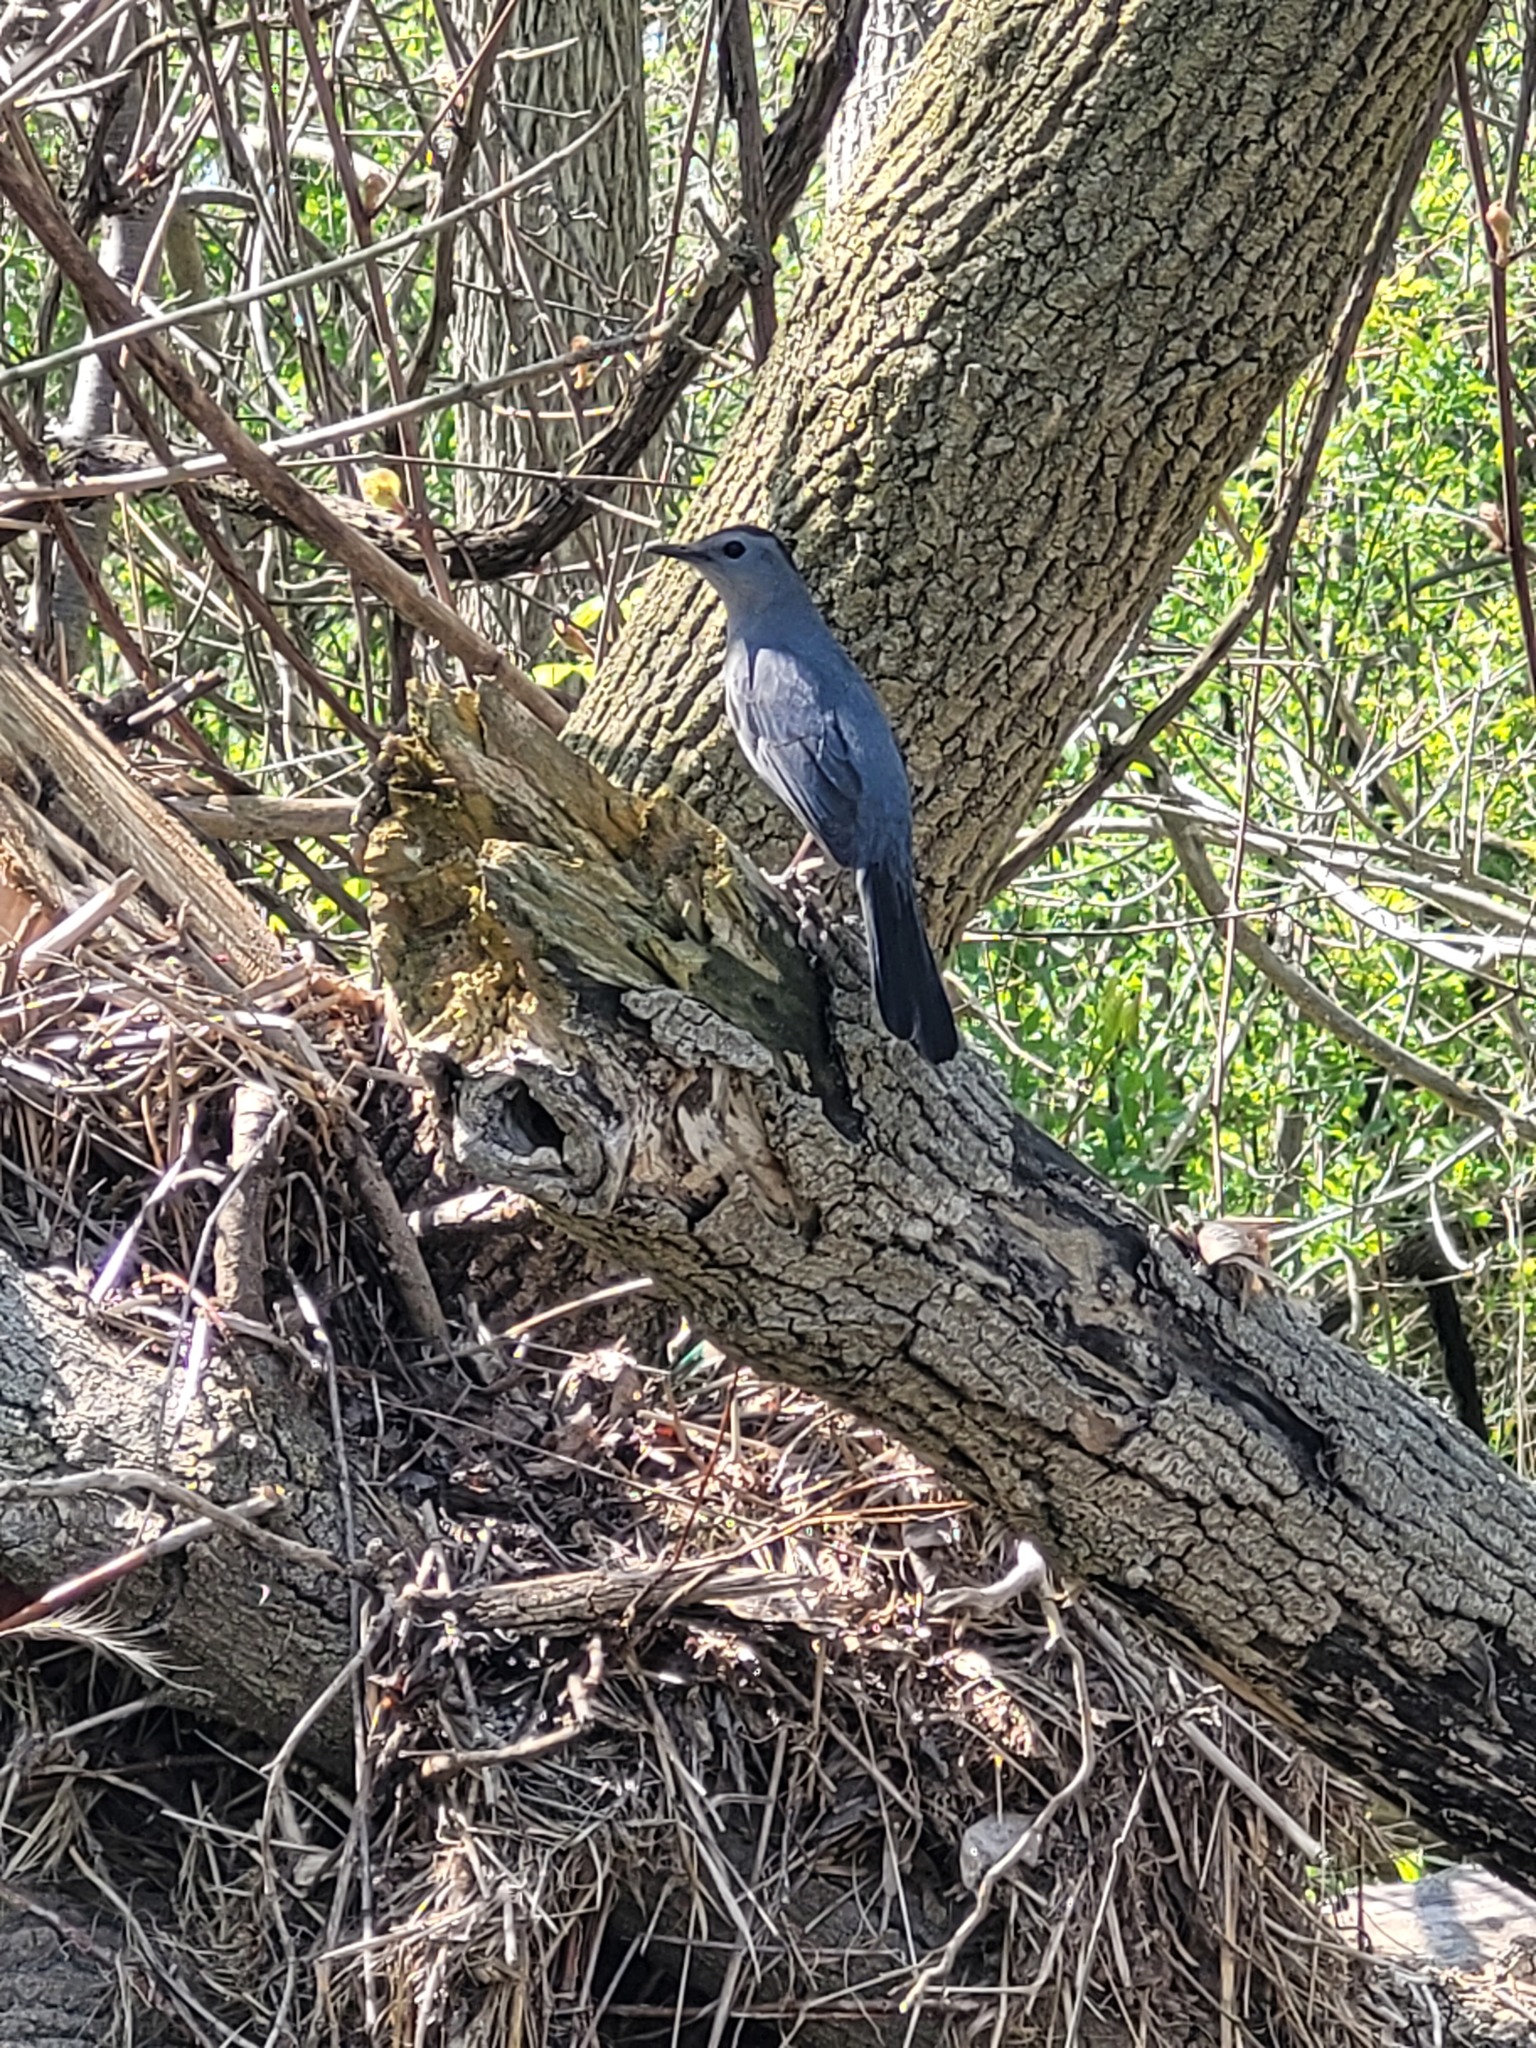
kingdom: Animalia
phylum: Chordata
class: Aves
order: Passeriformes
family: Mimidae
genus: Dumetella
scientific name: Dumetella carolinensis
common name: Gray catbird
